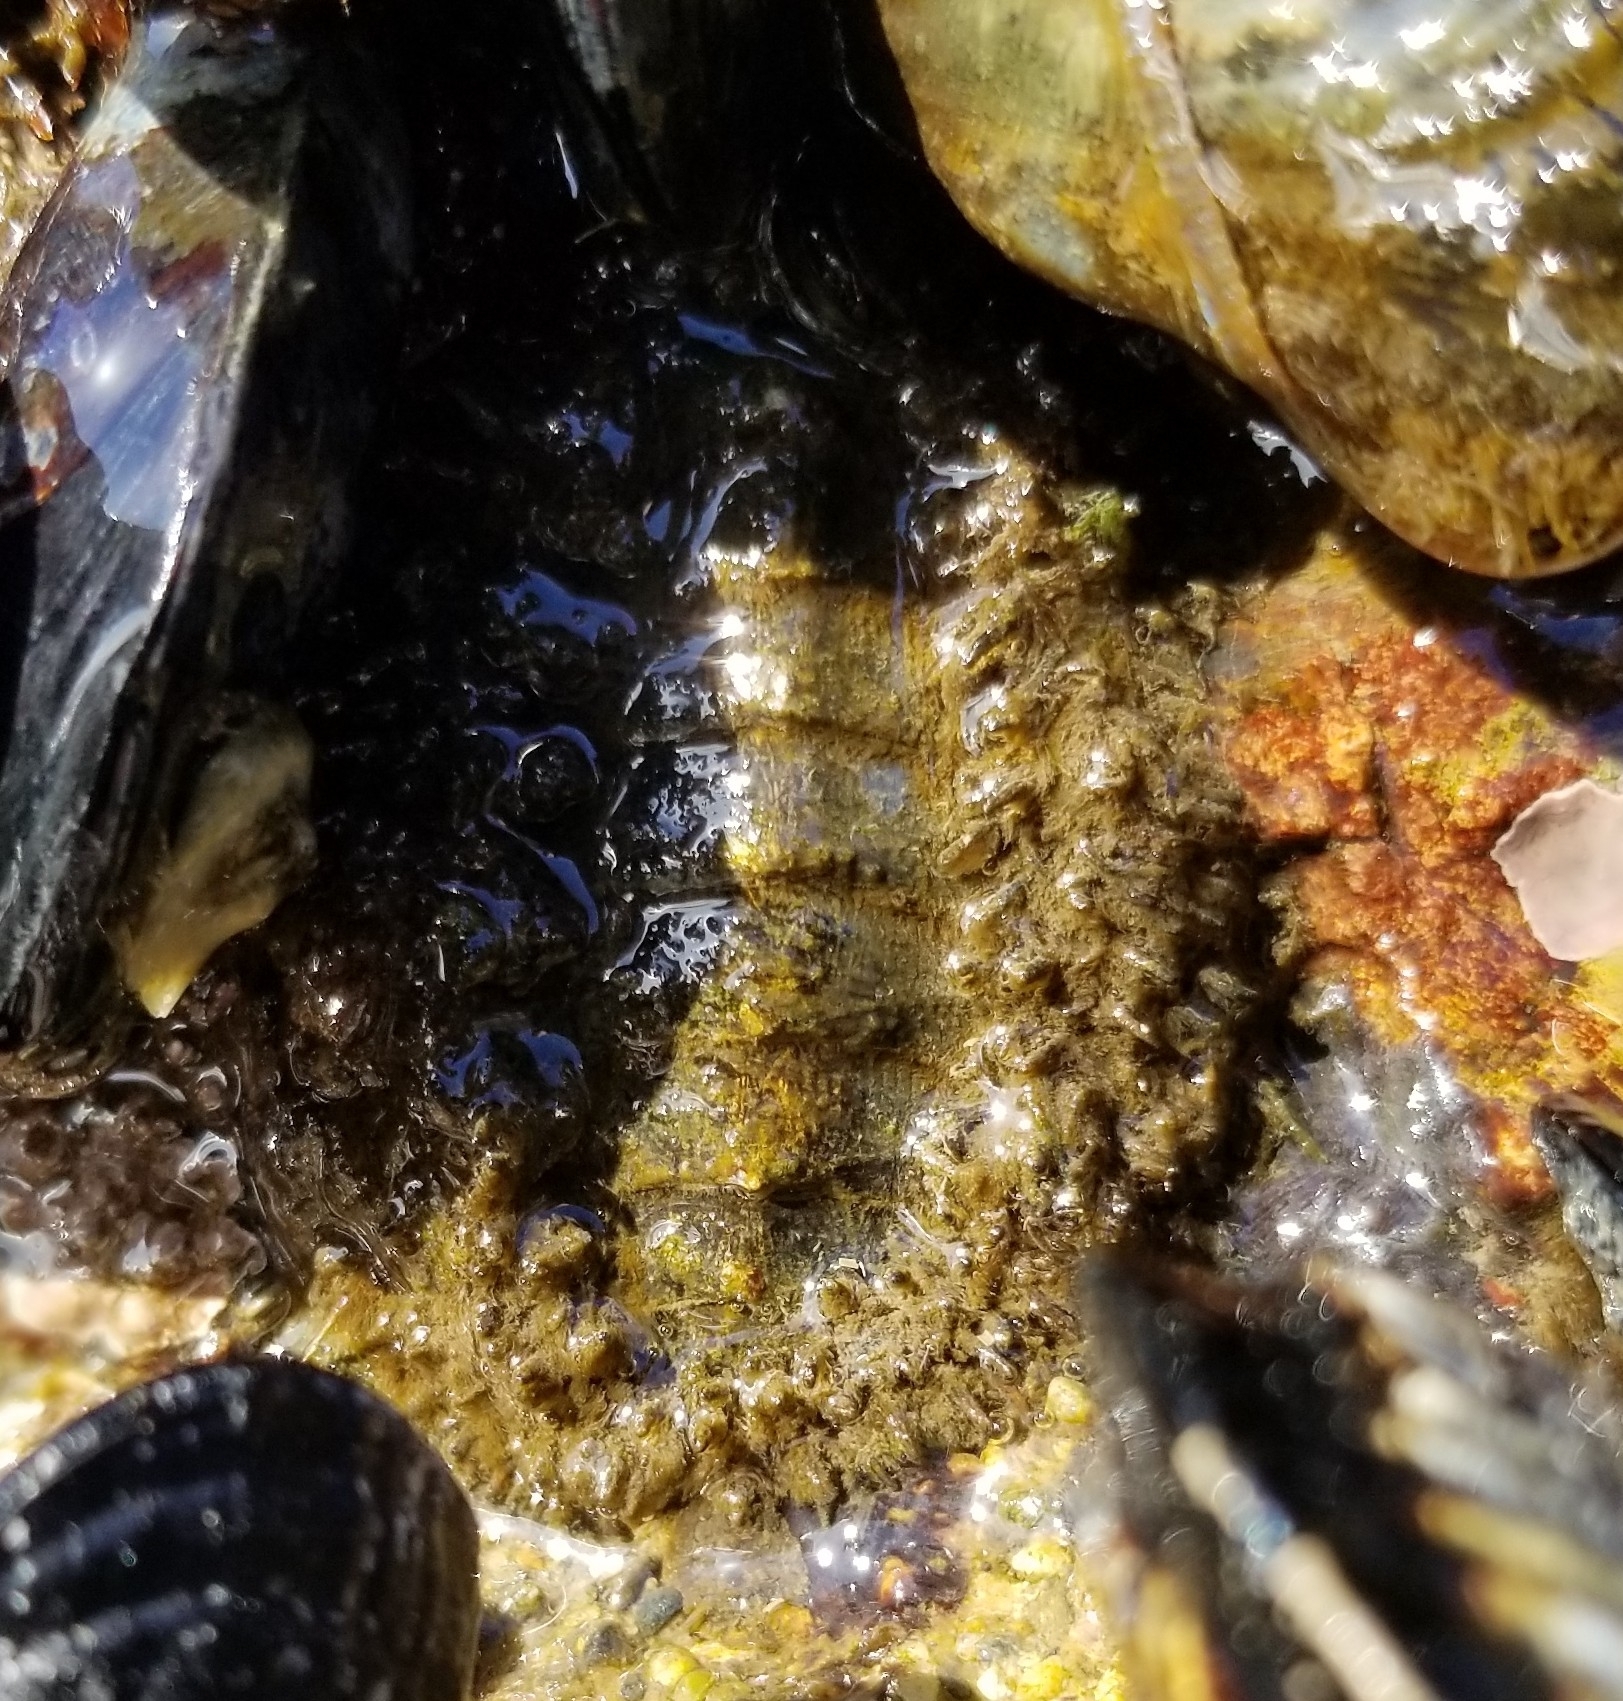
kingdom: Animalia
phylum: Mollusca
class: Polyplacophora
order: Chitonida
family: Mopaliidae
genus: Mopalia
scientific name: Mopalia muscosa
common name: Mossy chiton
